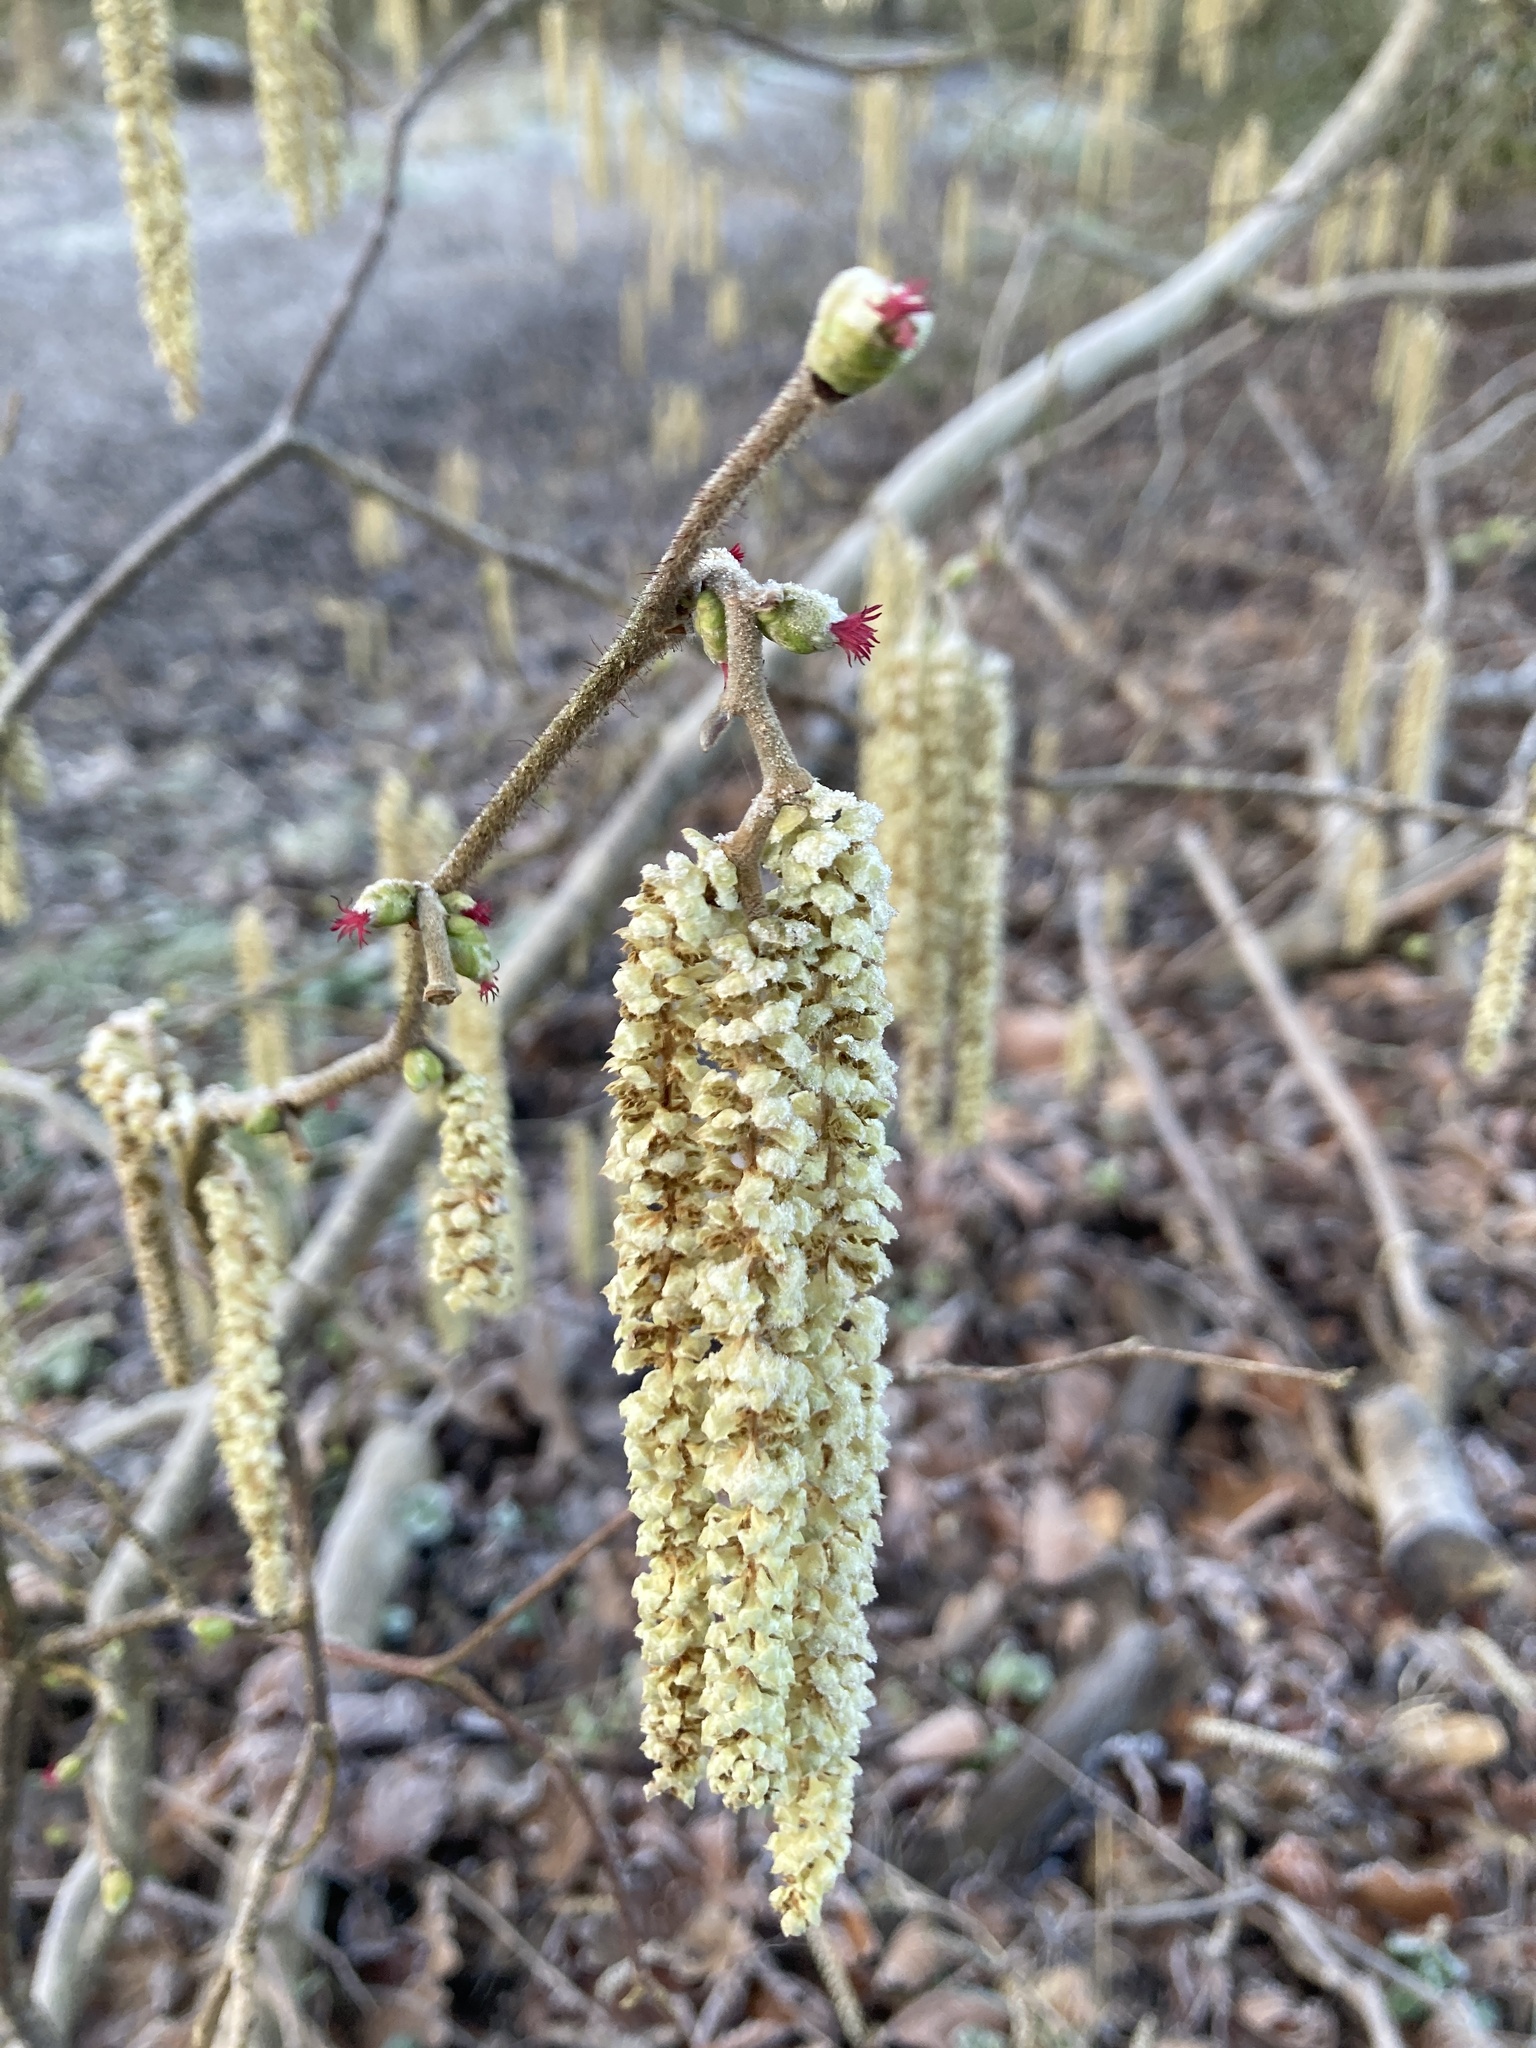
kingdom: Plantae
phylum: Tracheophyta
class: Magnoliopsida
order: Fagales
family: Betulaceae
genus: Corylus
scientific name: Corylus avellana
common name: European hazel
